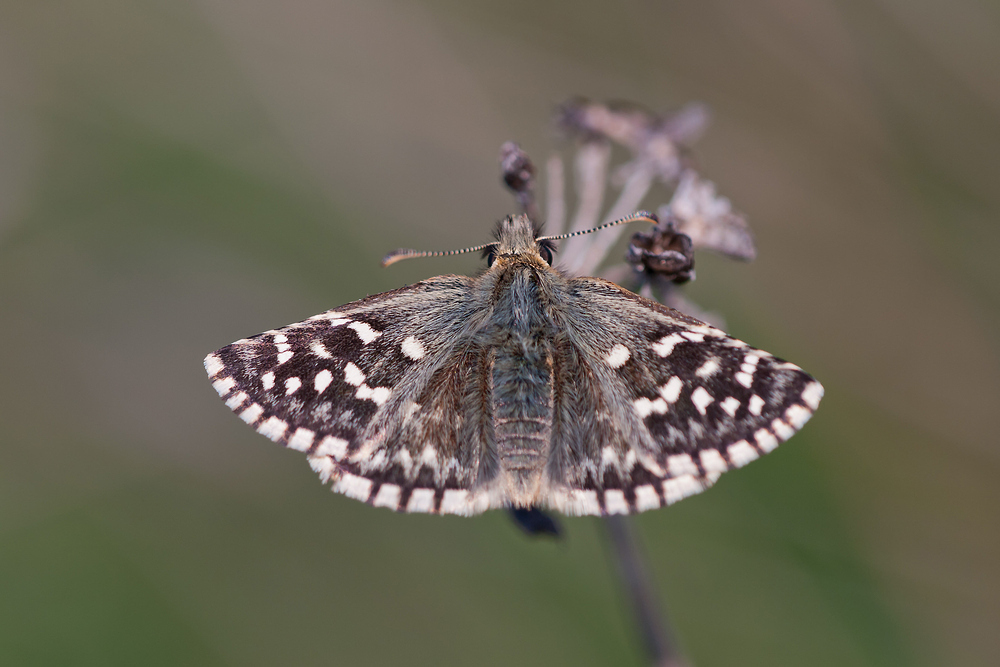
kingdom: Animalia
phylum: Arthropoda
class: Insecta
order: Lepidoptera
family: Hesperiidae
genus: Pyrgus
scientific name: Pyrgus malvoides
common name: Southern grizzled skipper
